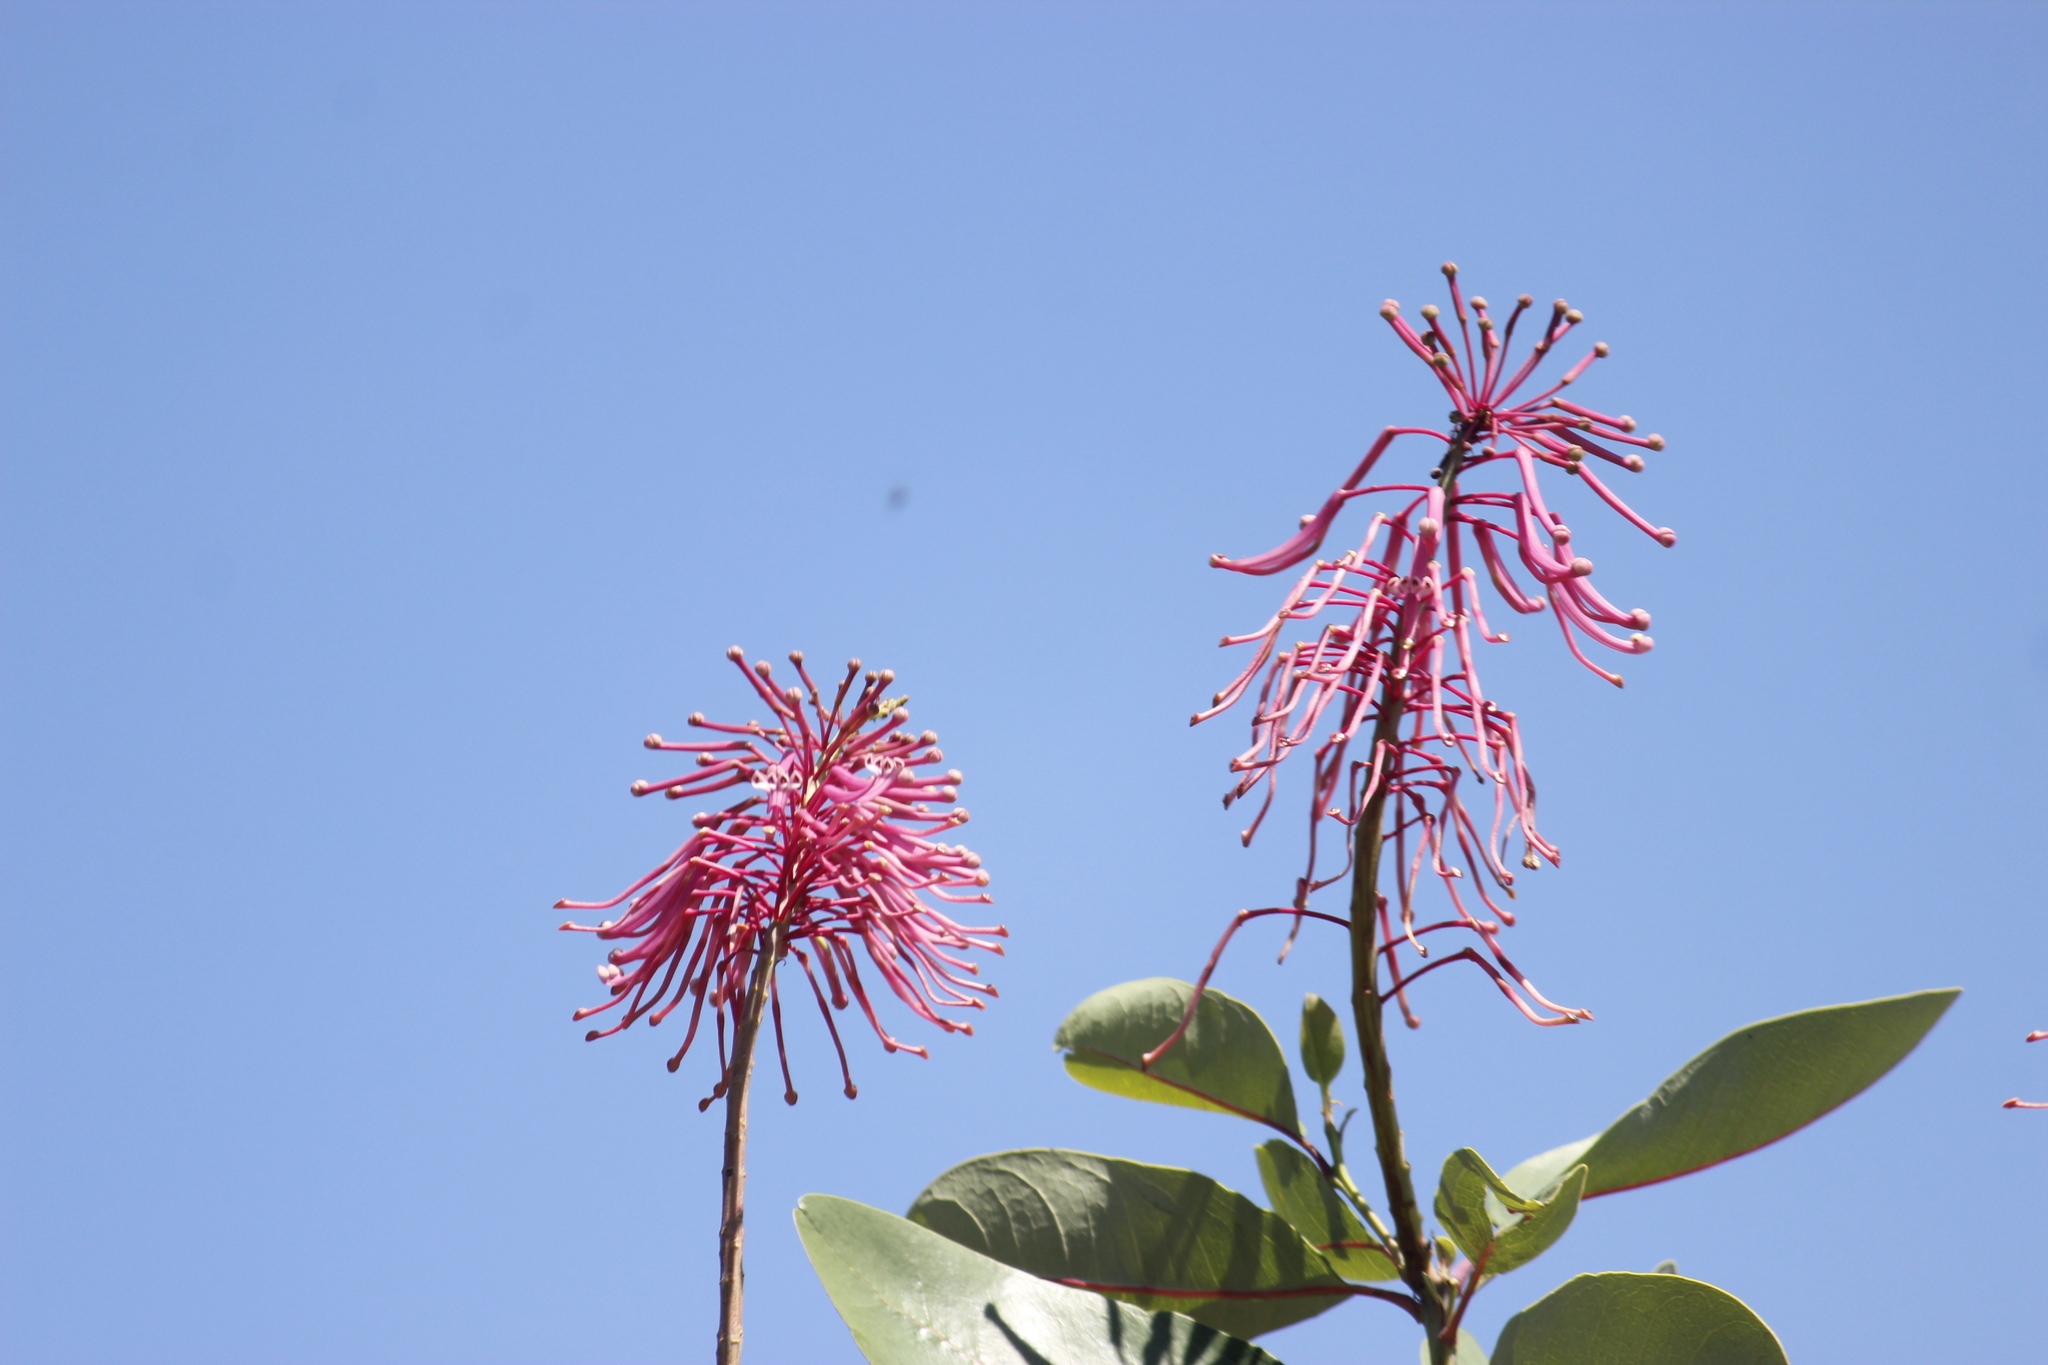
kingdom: Plantae
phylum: Tracheophyta
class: Magnoliopsida
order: Proteales
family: Proteaceae
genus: Oreocallis
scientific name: Oreocallis grandiflora
